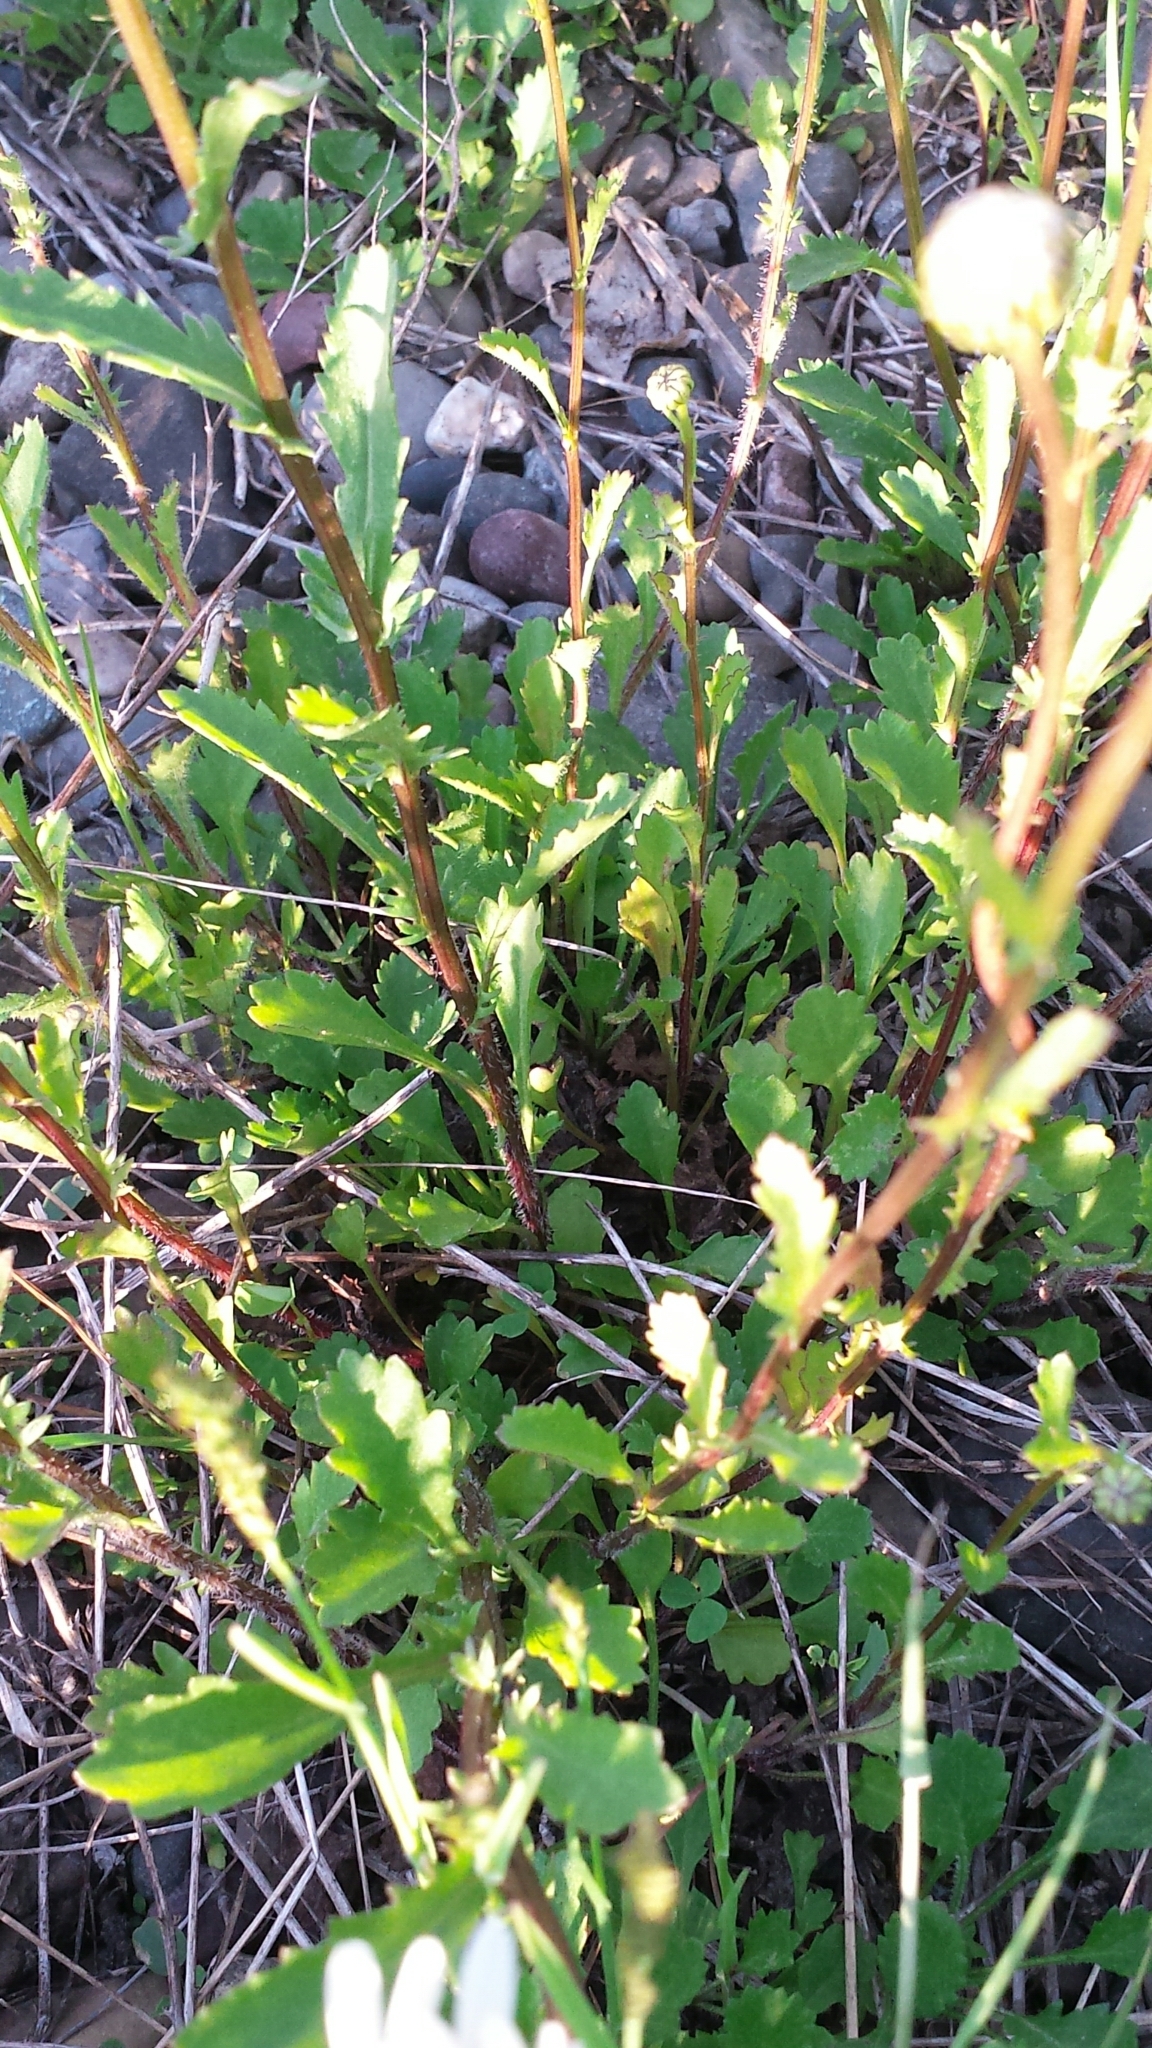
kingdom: Plantae
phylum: Tracheophyta
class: Magnoliopsida
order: Asterales
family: Asteraceae
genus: Leucanthemum
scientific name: Leucanthemum vulgare
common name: Oxeye daisy
